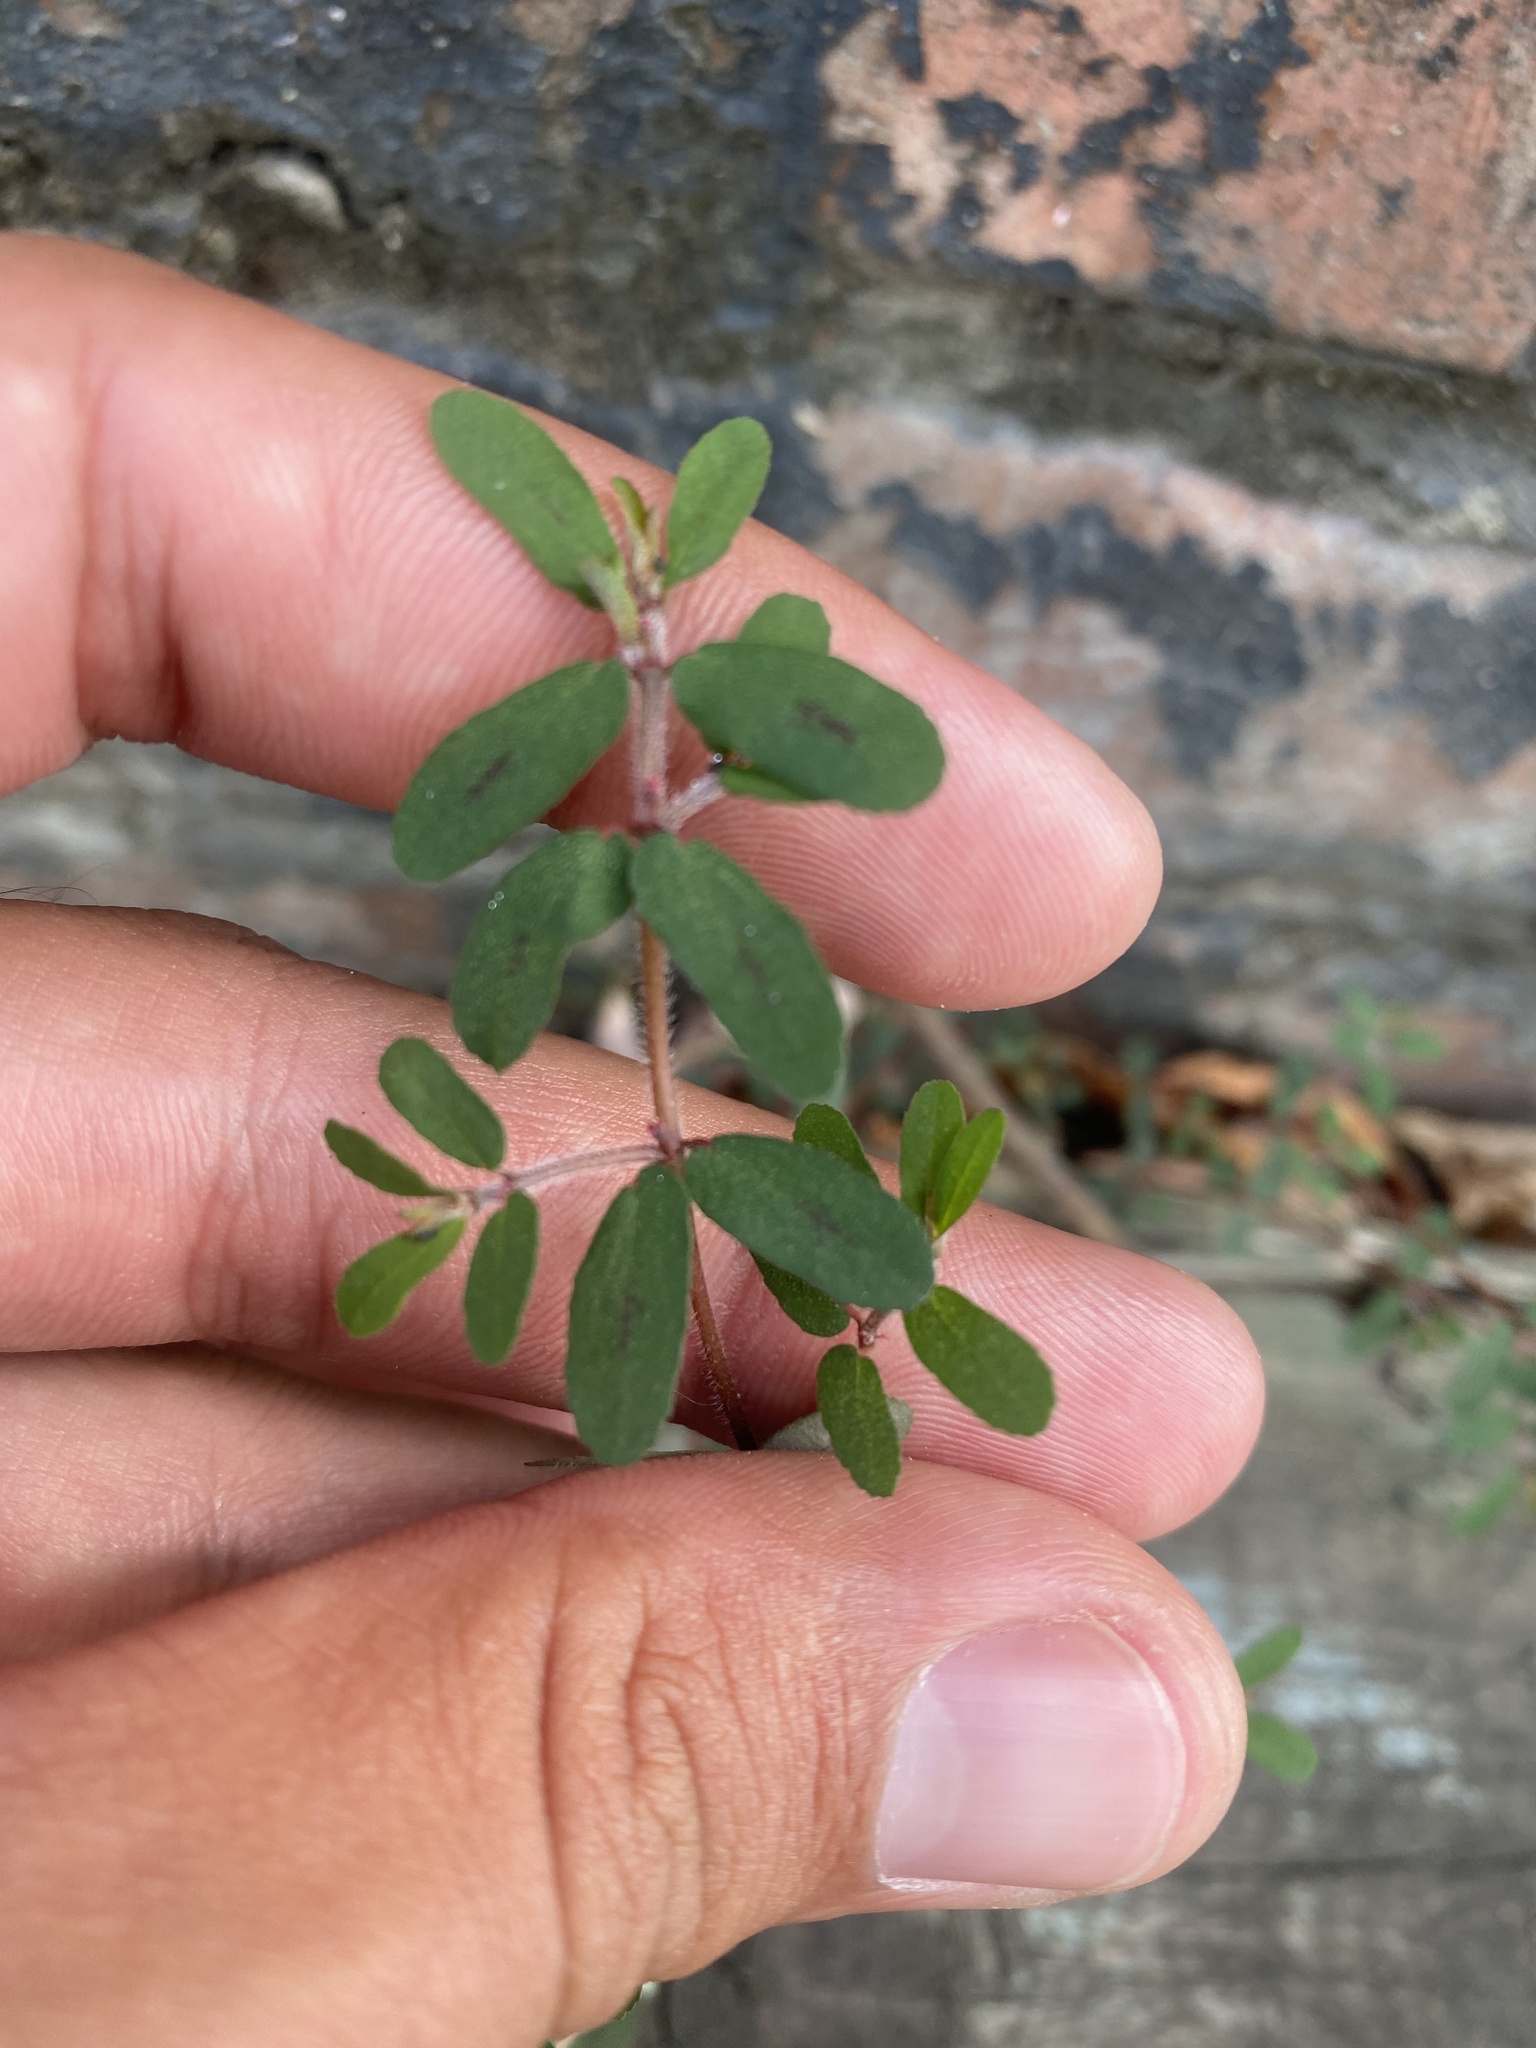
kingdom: Plantae
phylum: Tracheophyta
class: Magnoliopsida
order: Malpighiales
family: Euphorbiaceae
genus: Euphorbia
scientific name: Euphorbia maculata
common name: Spotted spurge
